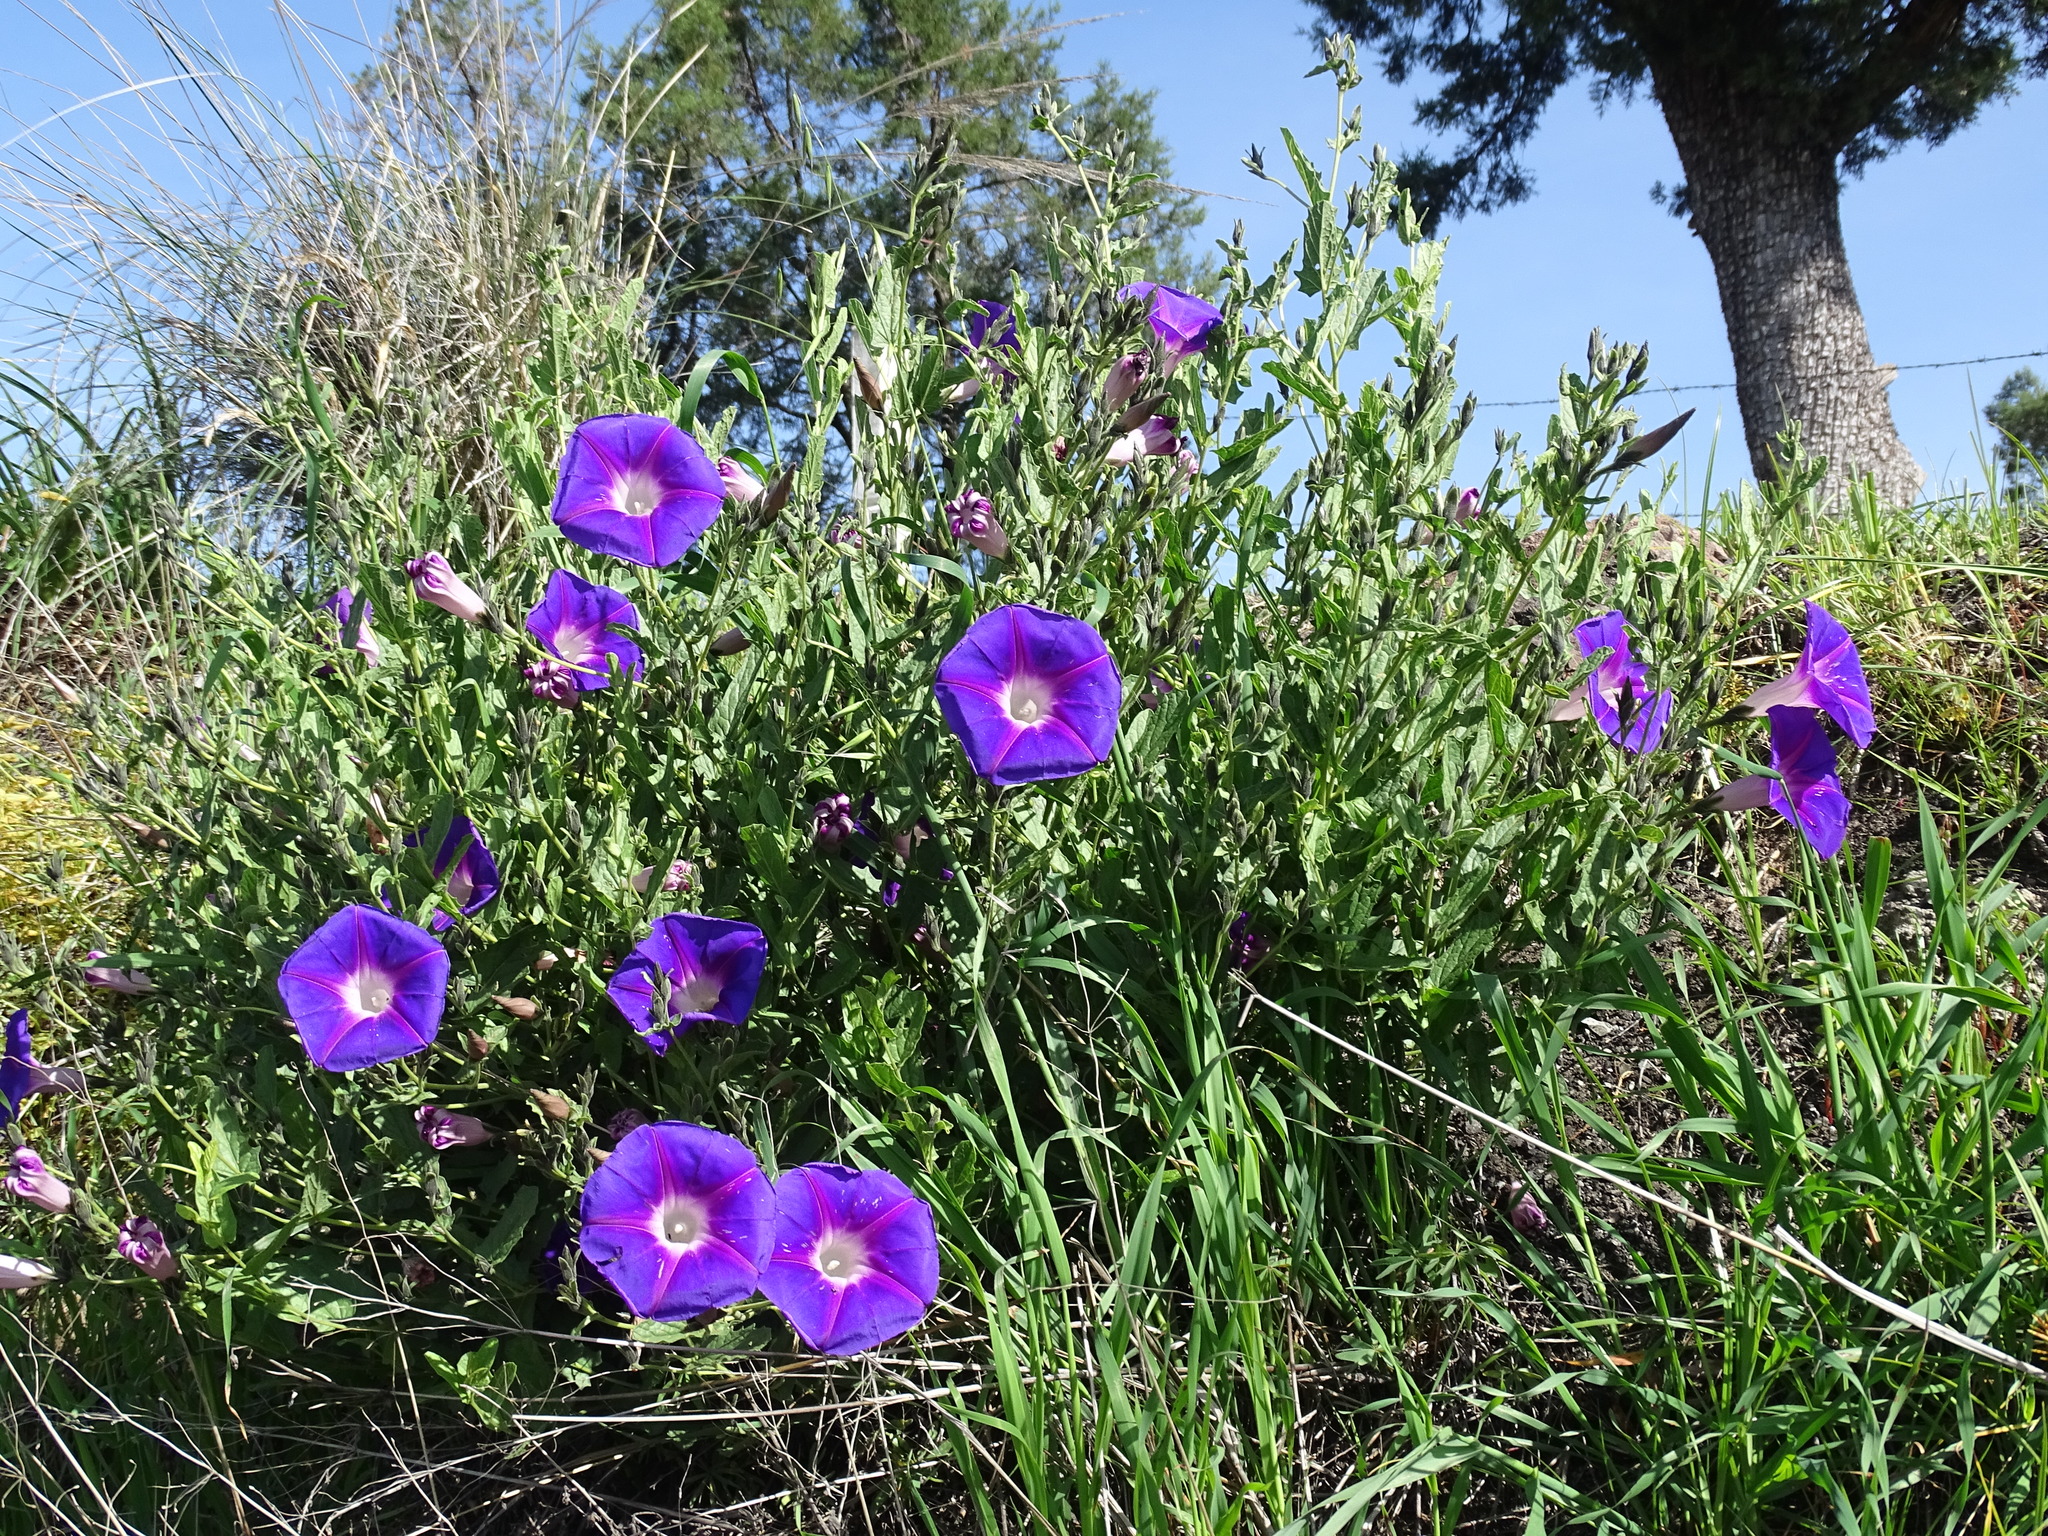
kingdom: Plantae
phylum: Tracheophyta
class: Magnoliopsida
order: Solanales
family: Convolvulaceae
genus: Ipomoea
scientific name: Ipomoea stans
